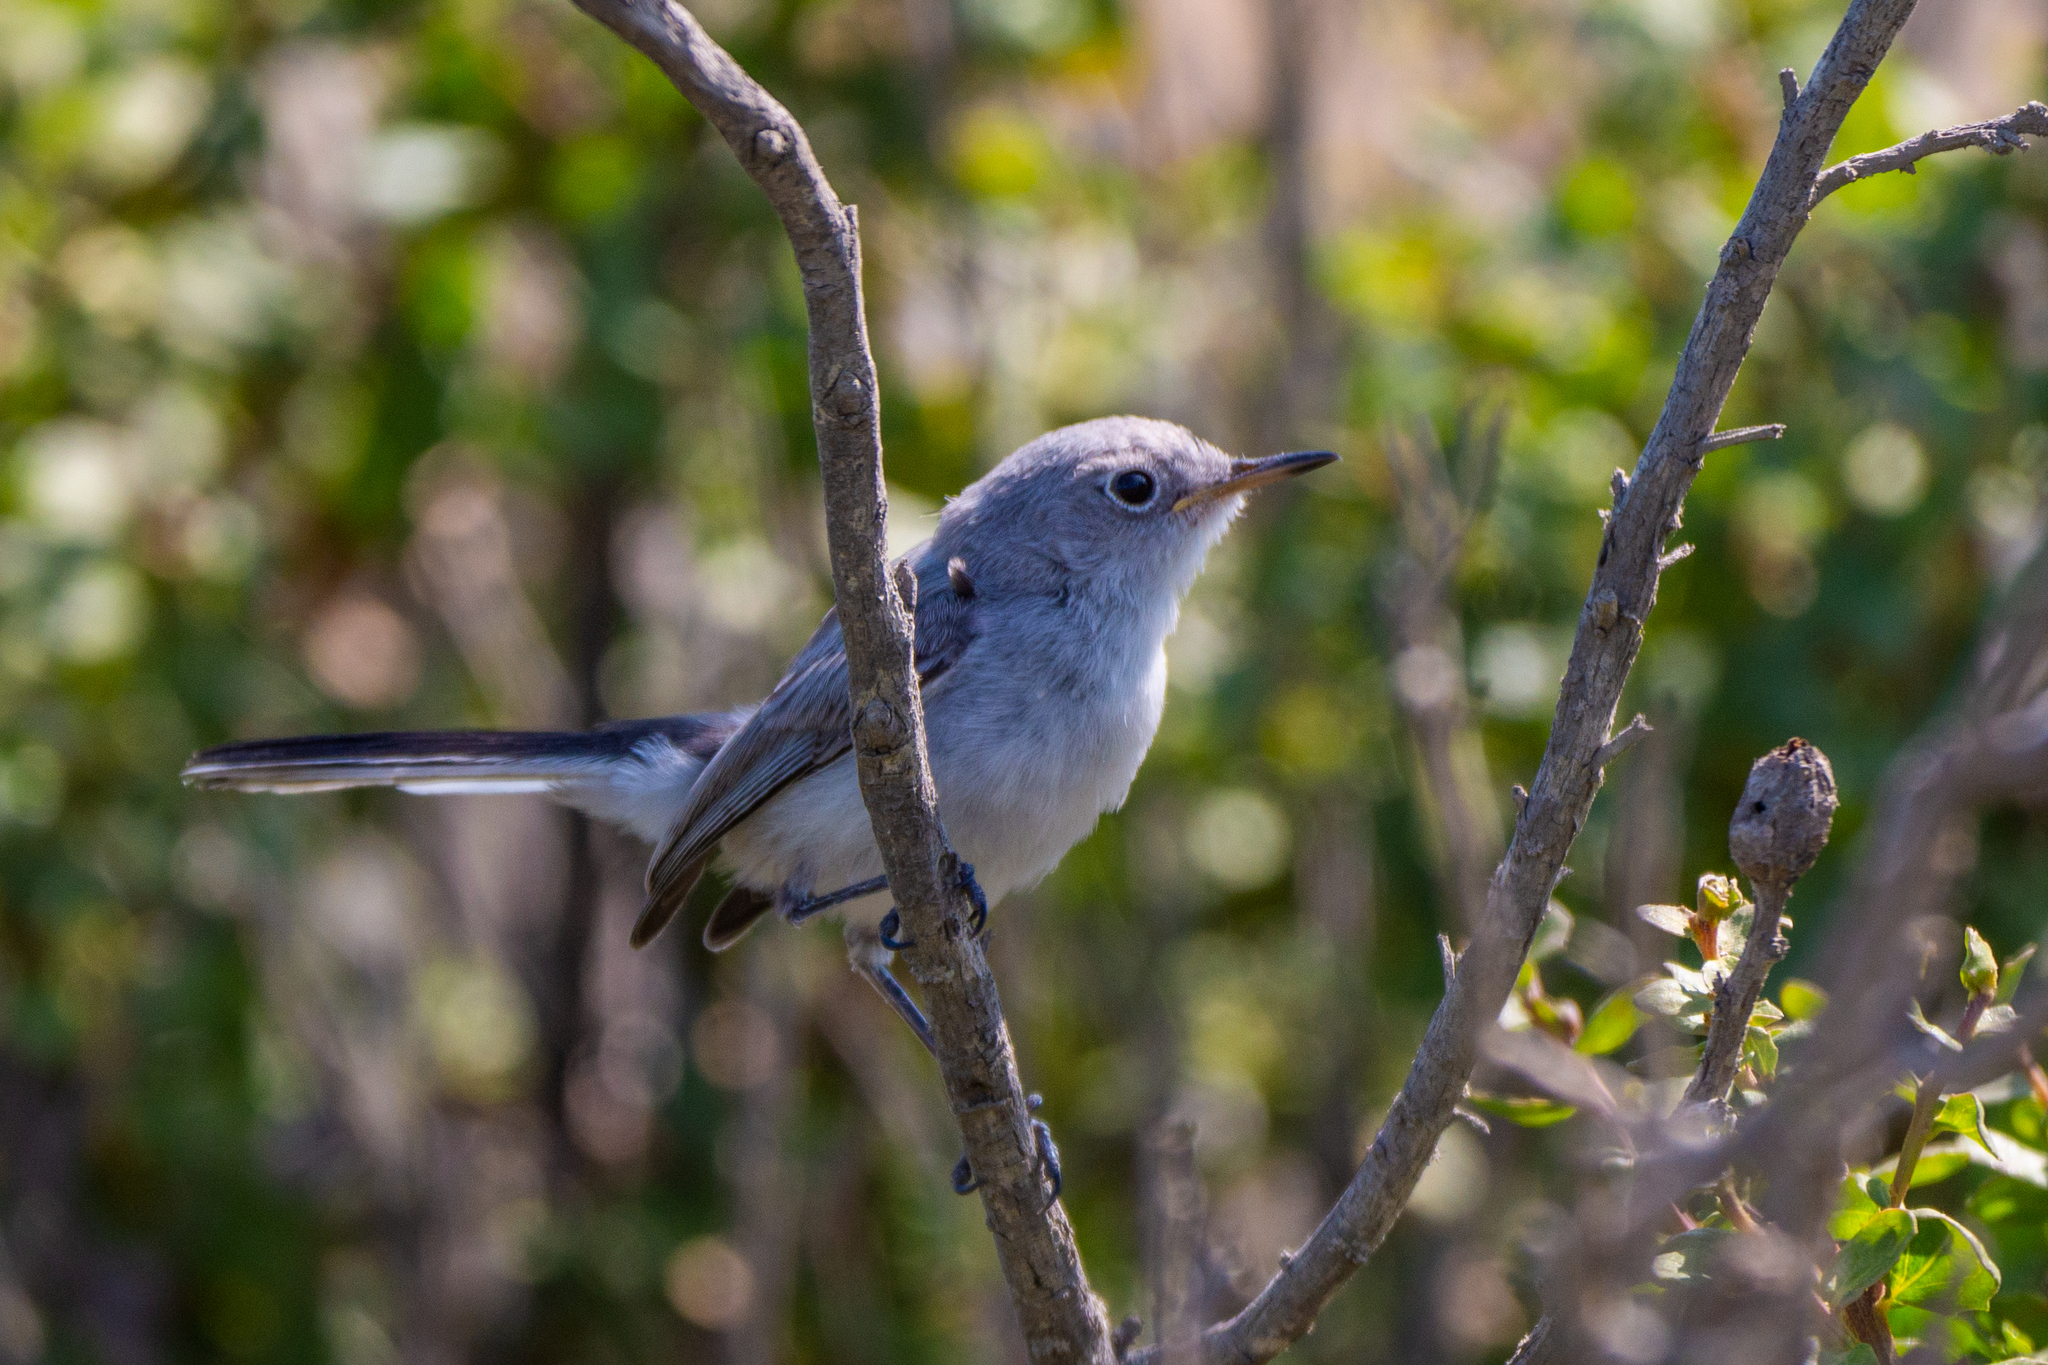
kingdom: Animalia
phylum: Chordata
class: Aves
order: Passeriformes
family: Polioptilidae
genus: Polioptila
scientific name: Polioptila caerulea
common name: Blue-gray gnatcatcher
